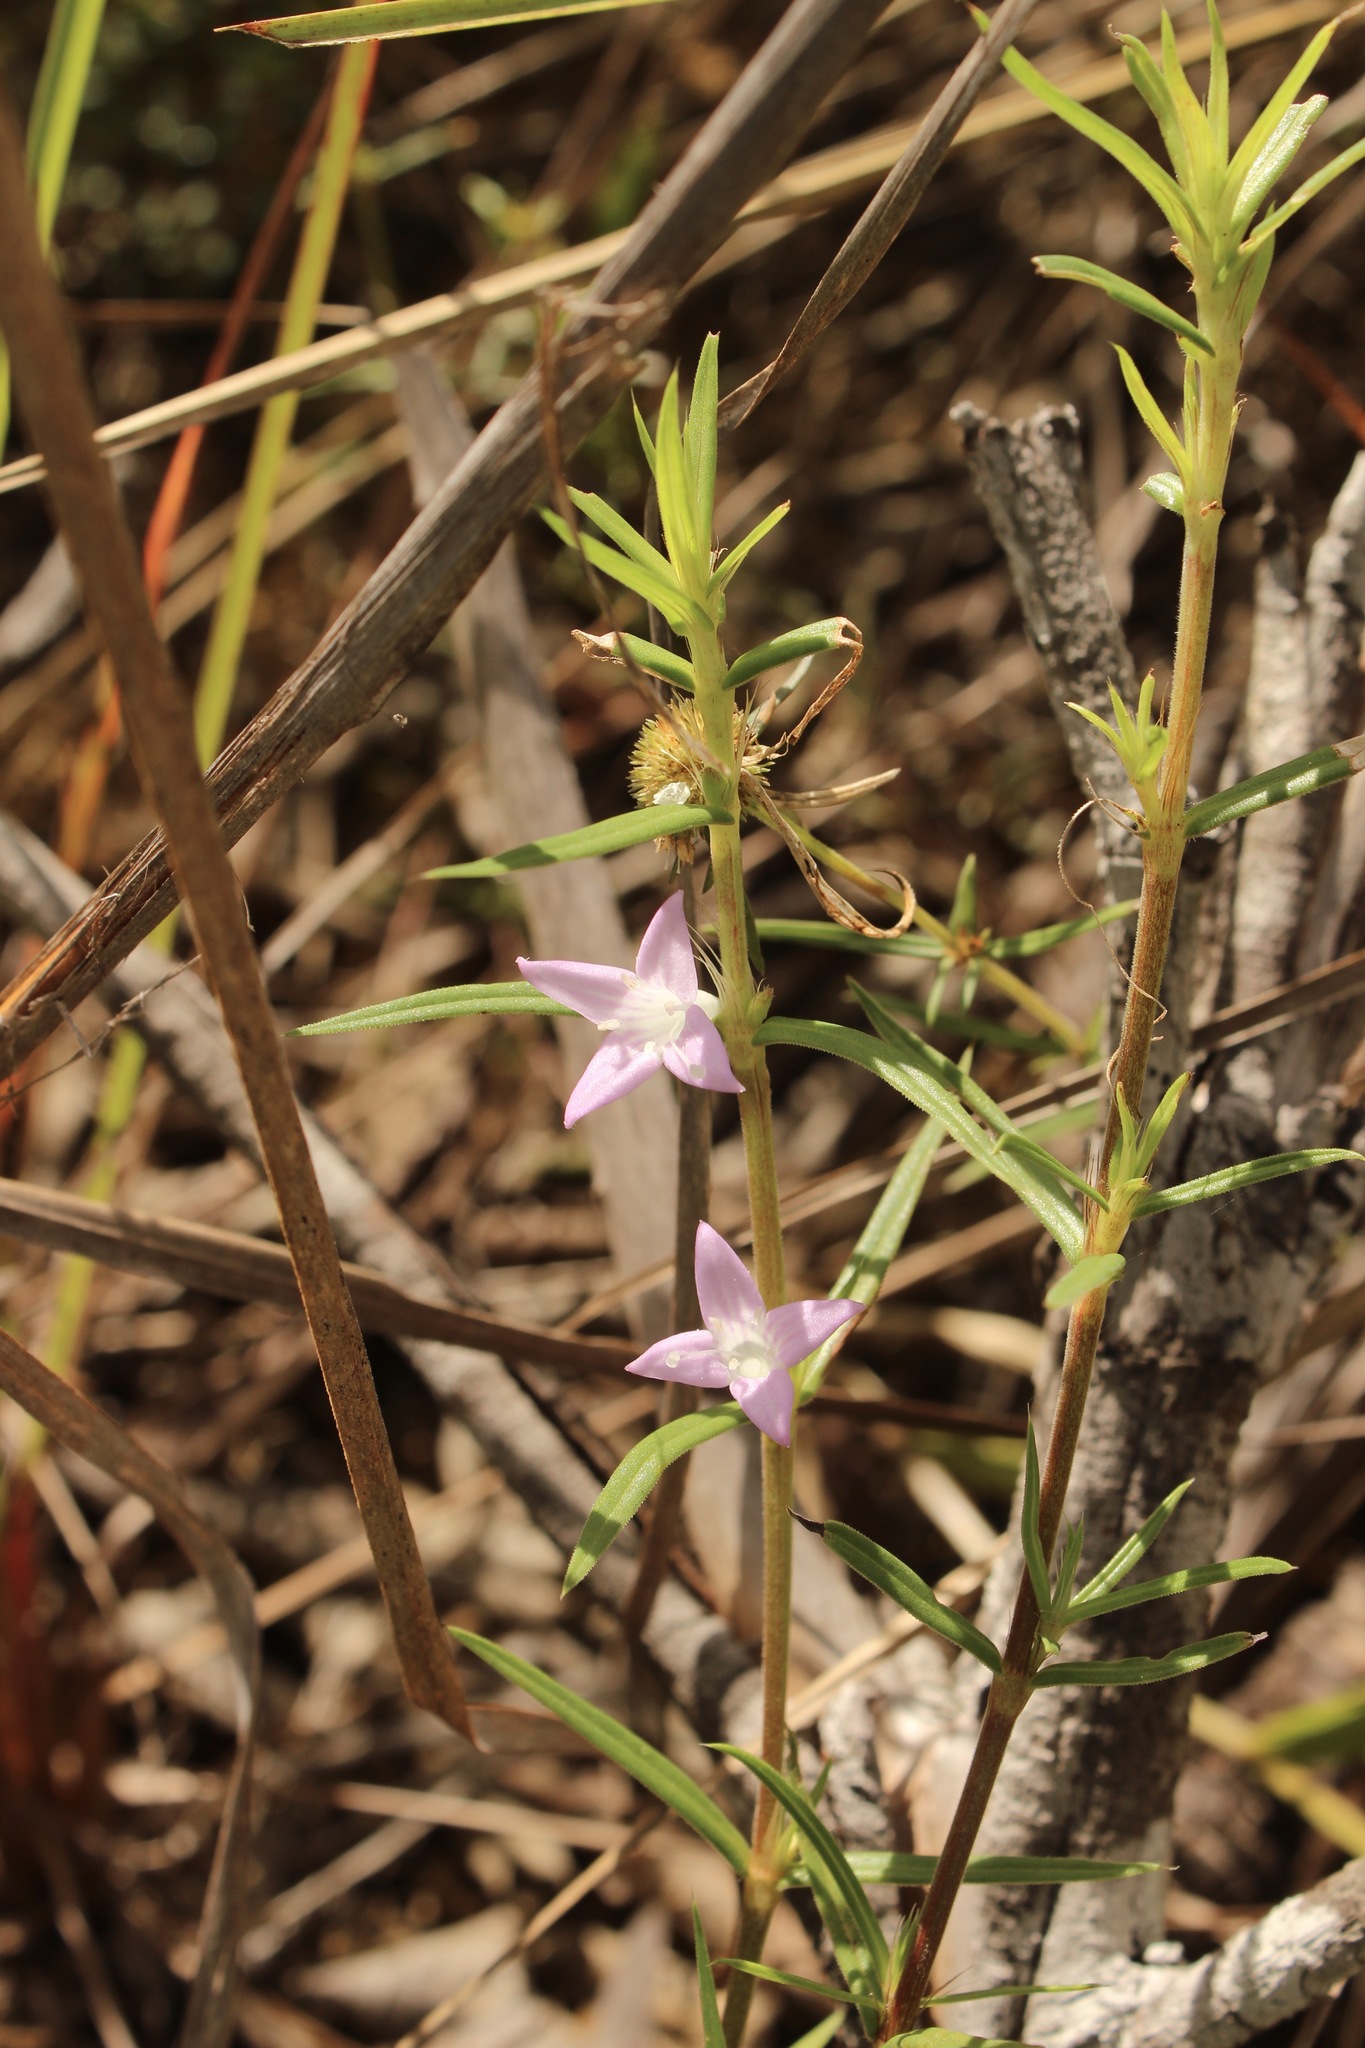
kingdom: Plantae
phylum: Tracheophyta
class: Magnoliopsida
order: Gentianales
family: Rubiaceae
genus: Hexasepalum
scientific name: Hexasepalum teres
